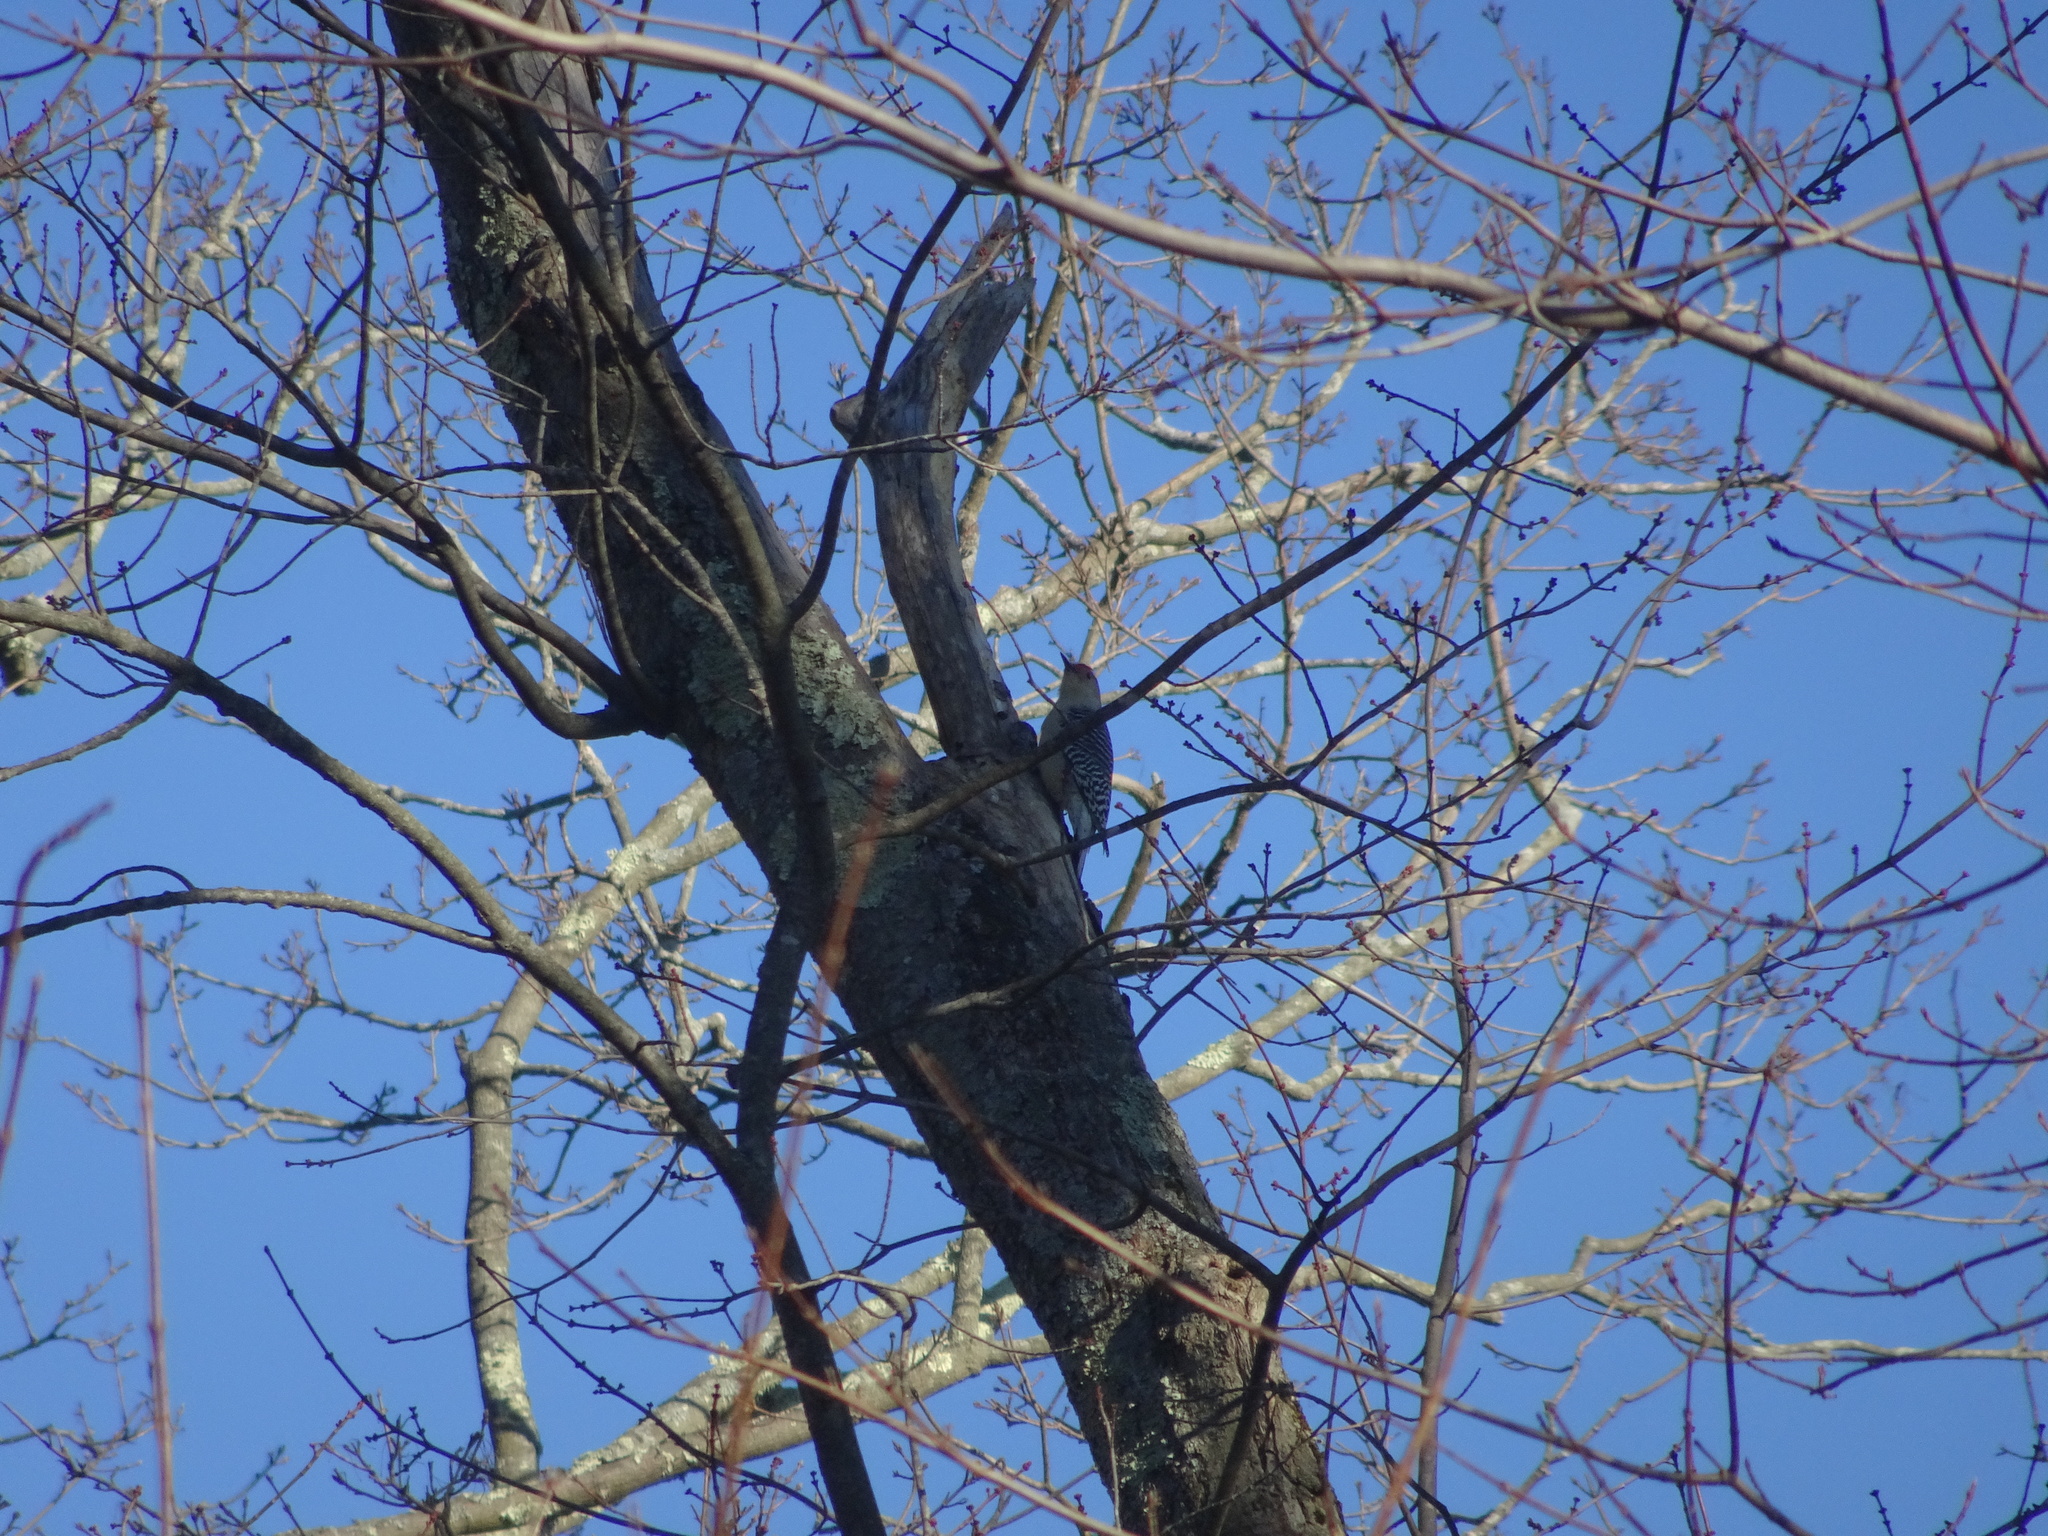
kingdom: Animalia
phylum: Chordata
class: Aves
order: Piciformes
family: Picidae
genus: Melanerpes
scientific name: Melanerpes carolinus
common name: Red-bellied woodpecker
